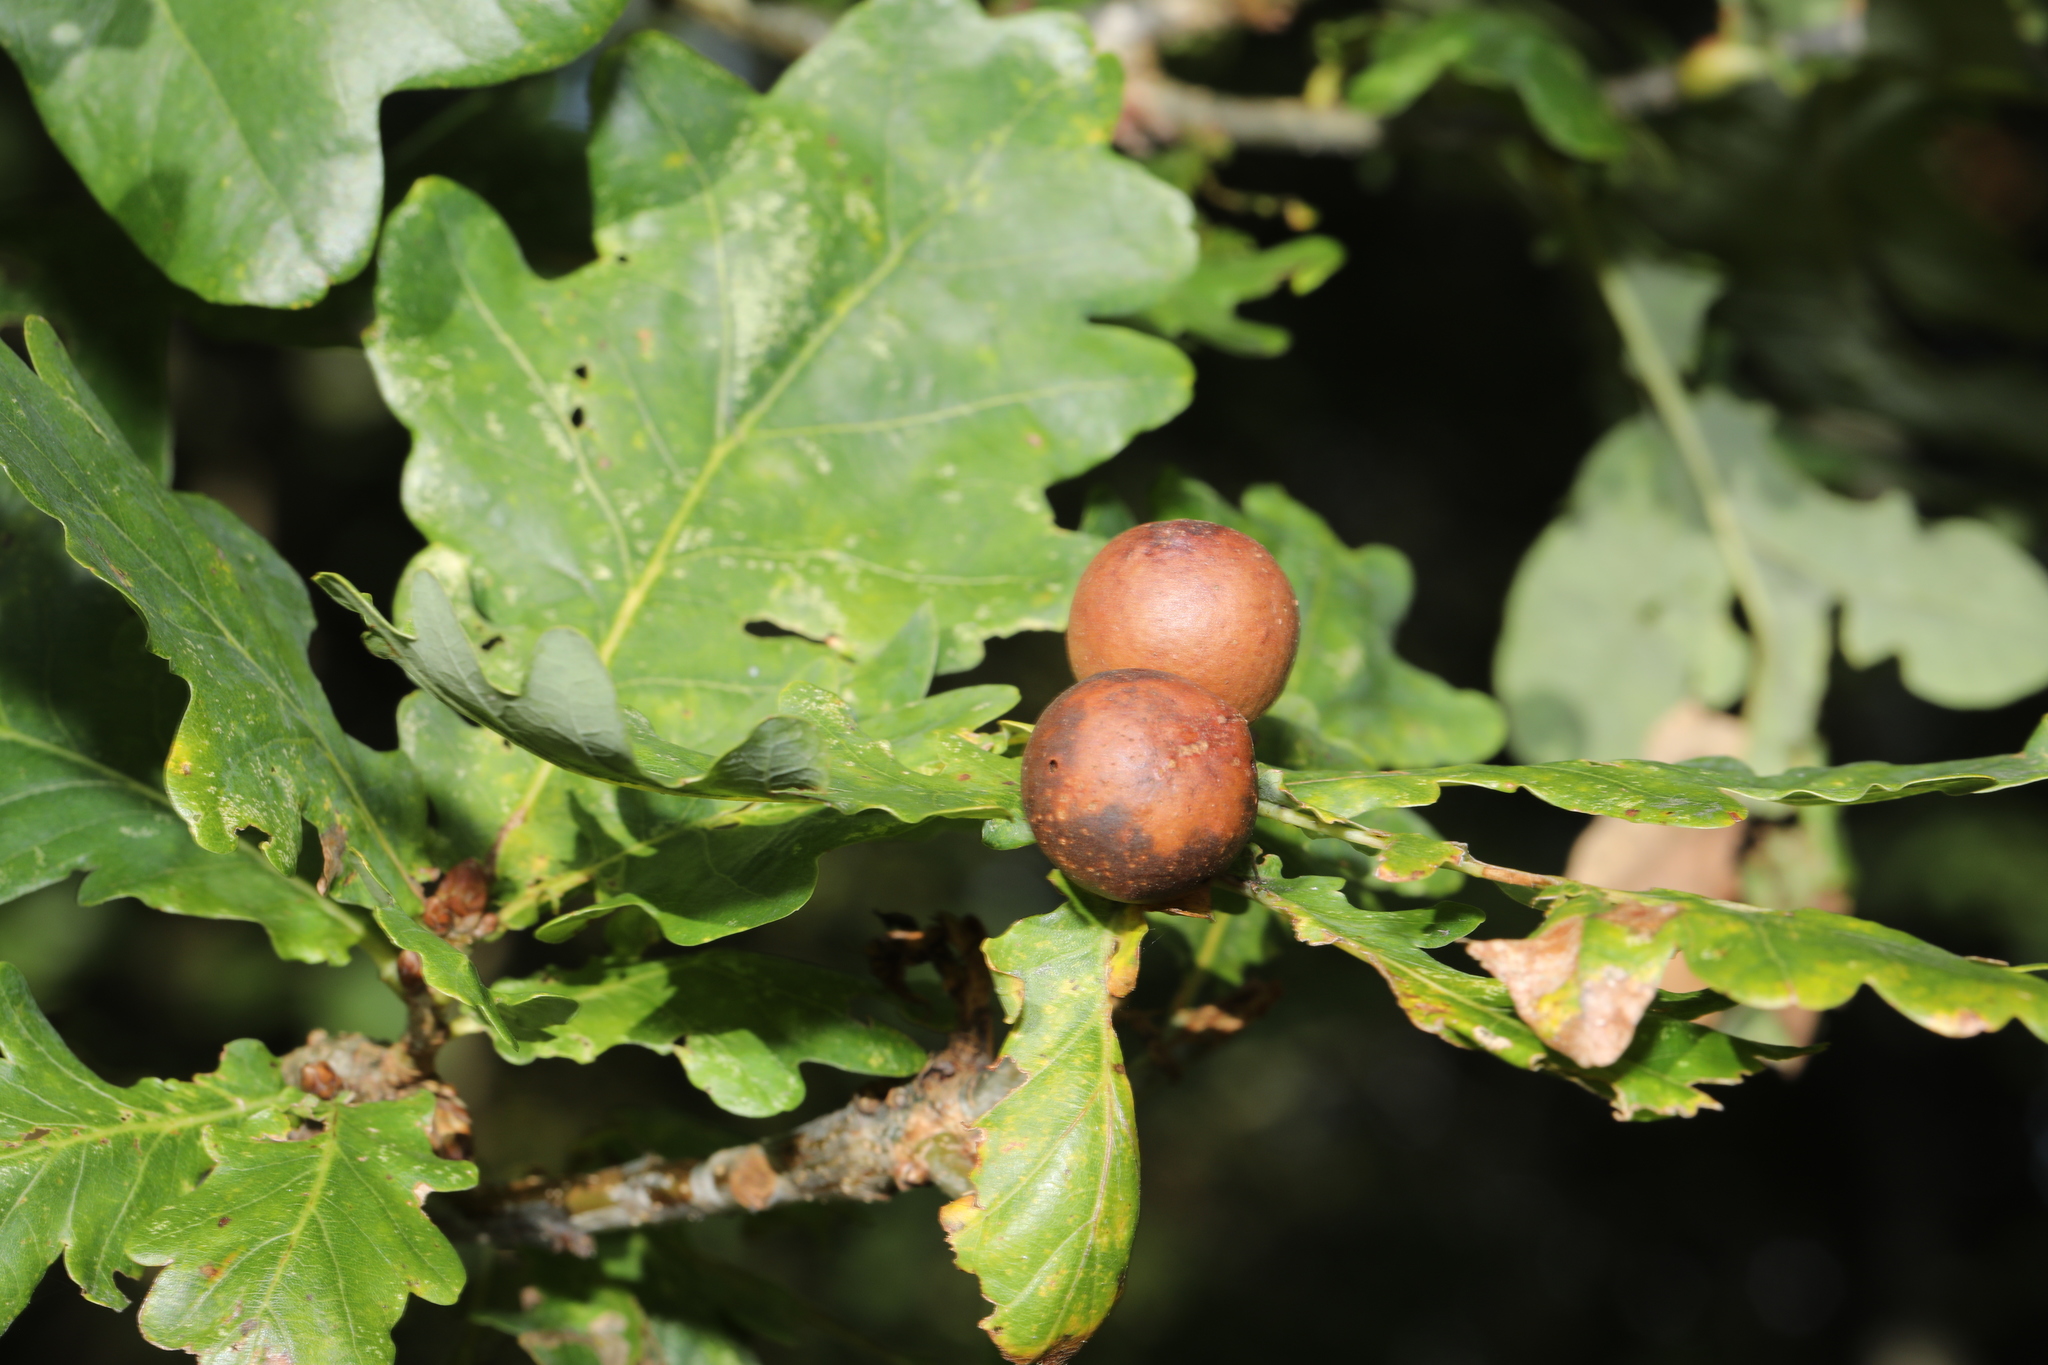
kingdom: Animalia
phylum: Arthropoda
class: Insecta
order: Hymenoptera
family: Cynipidae
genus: Andricus
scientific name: Andricus kollari
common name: Marble gall
